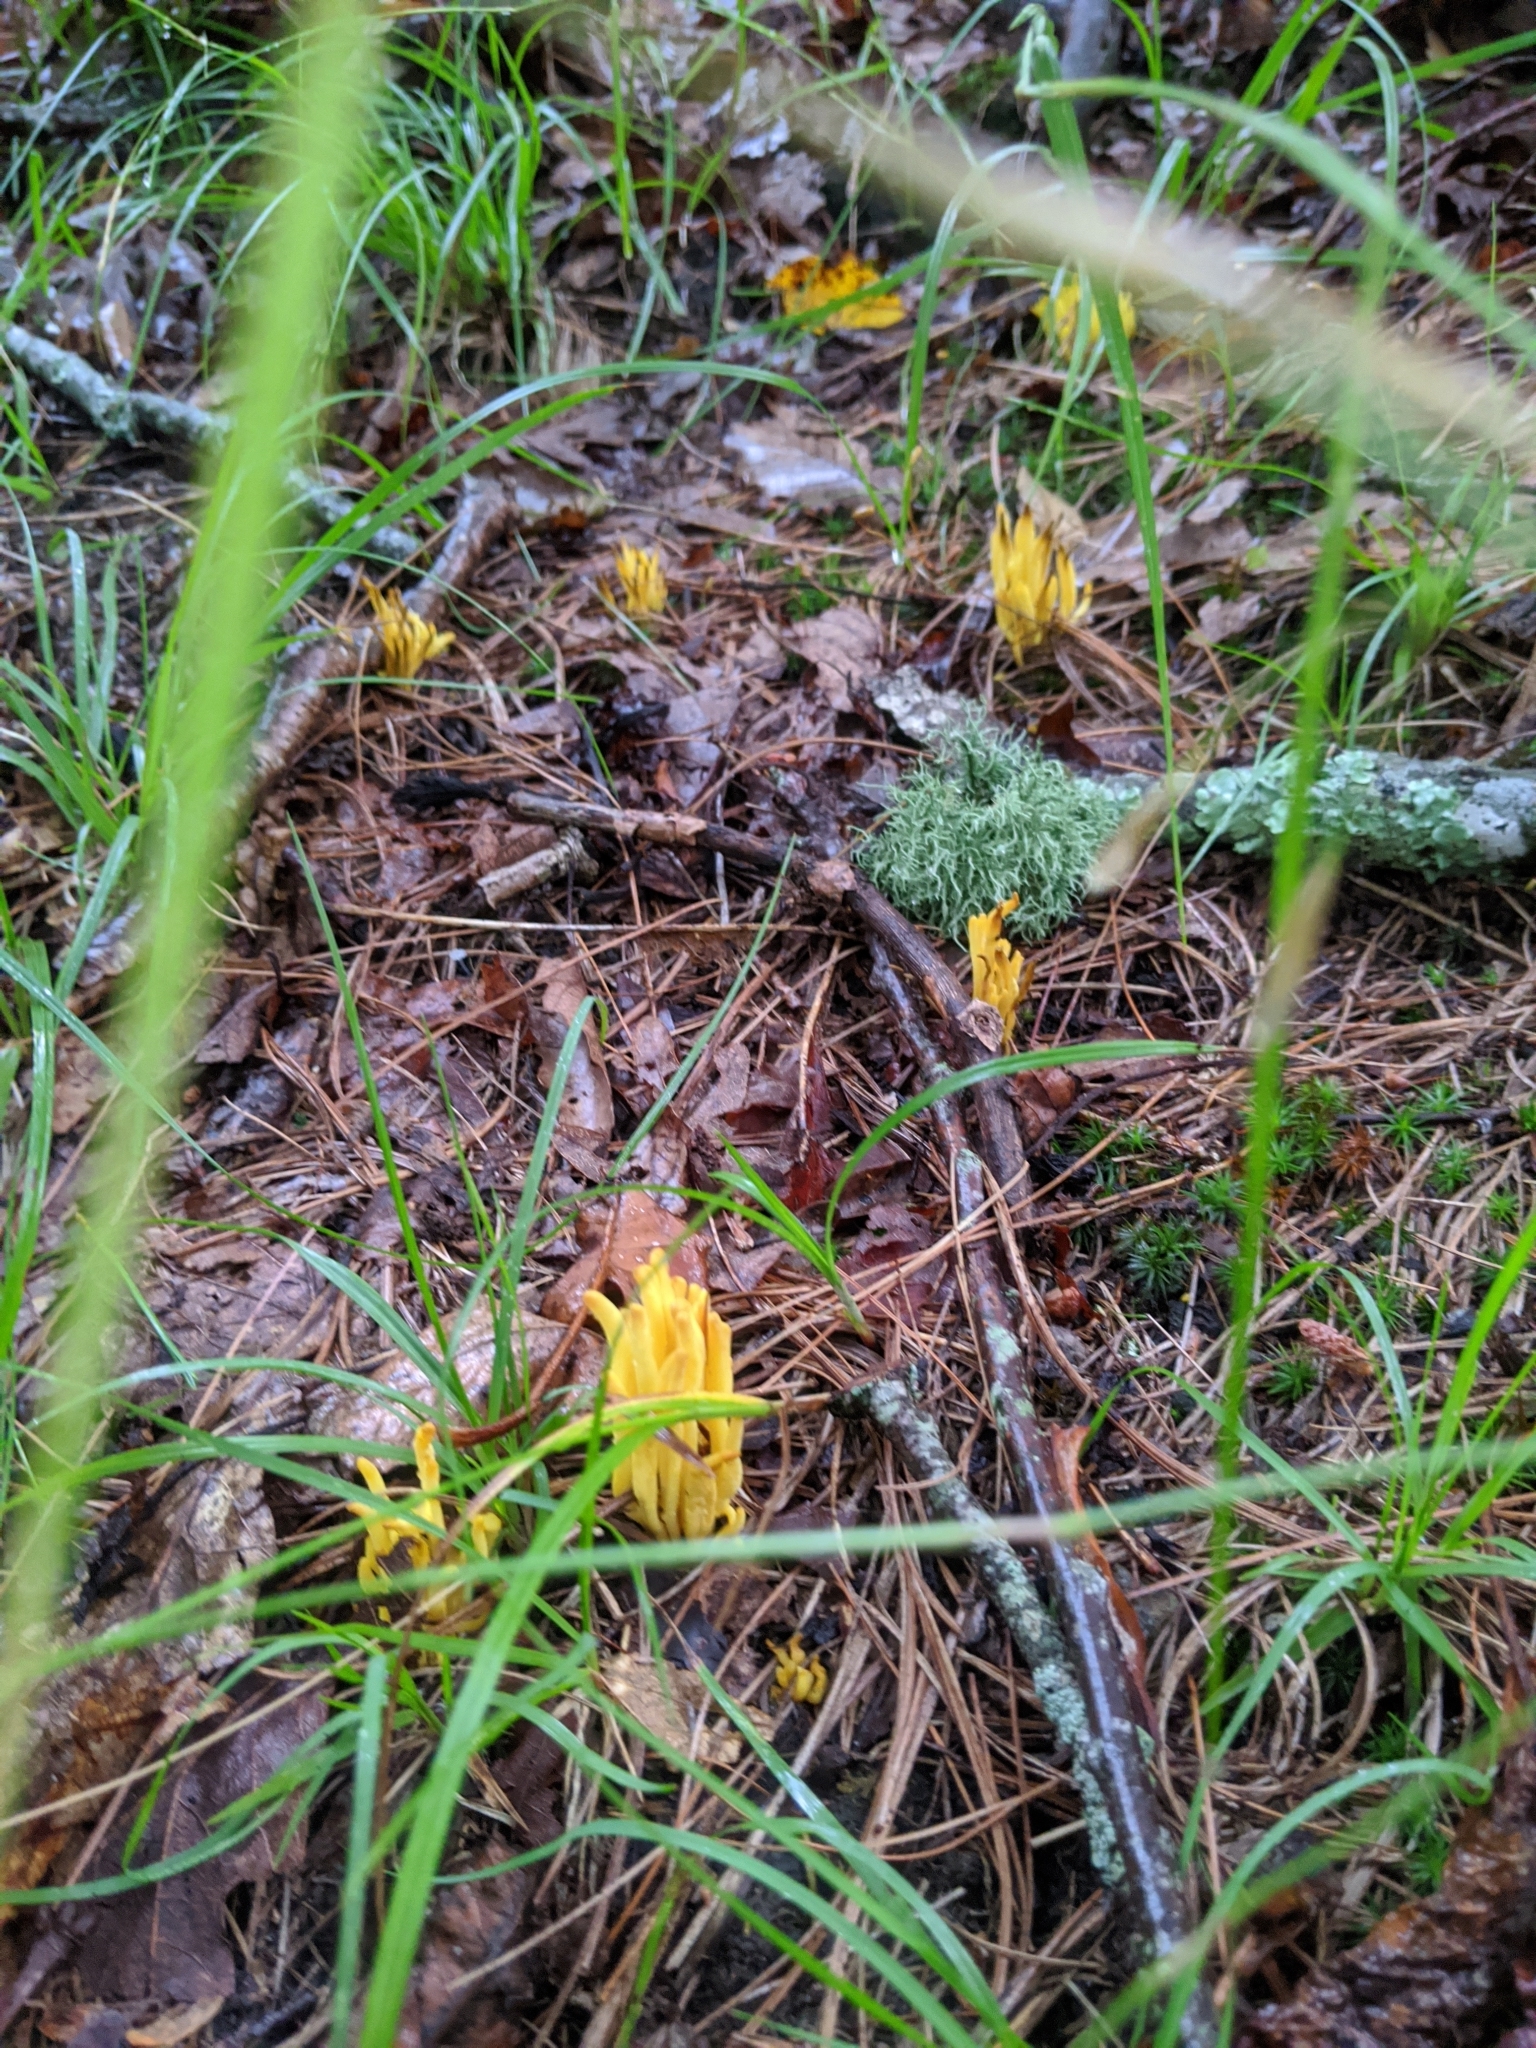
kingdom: Fungi
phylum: Basidiomycota
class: Agaricomycetes
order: Agaricales
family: Clavariaceae
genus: Clavulinopsis
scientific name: Clavulinopsis fusiformis
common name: Golden spindles
